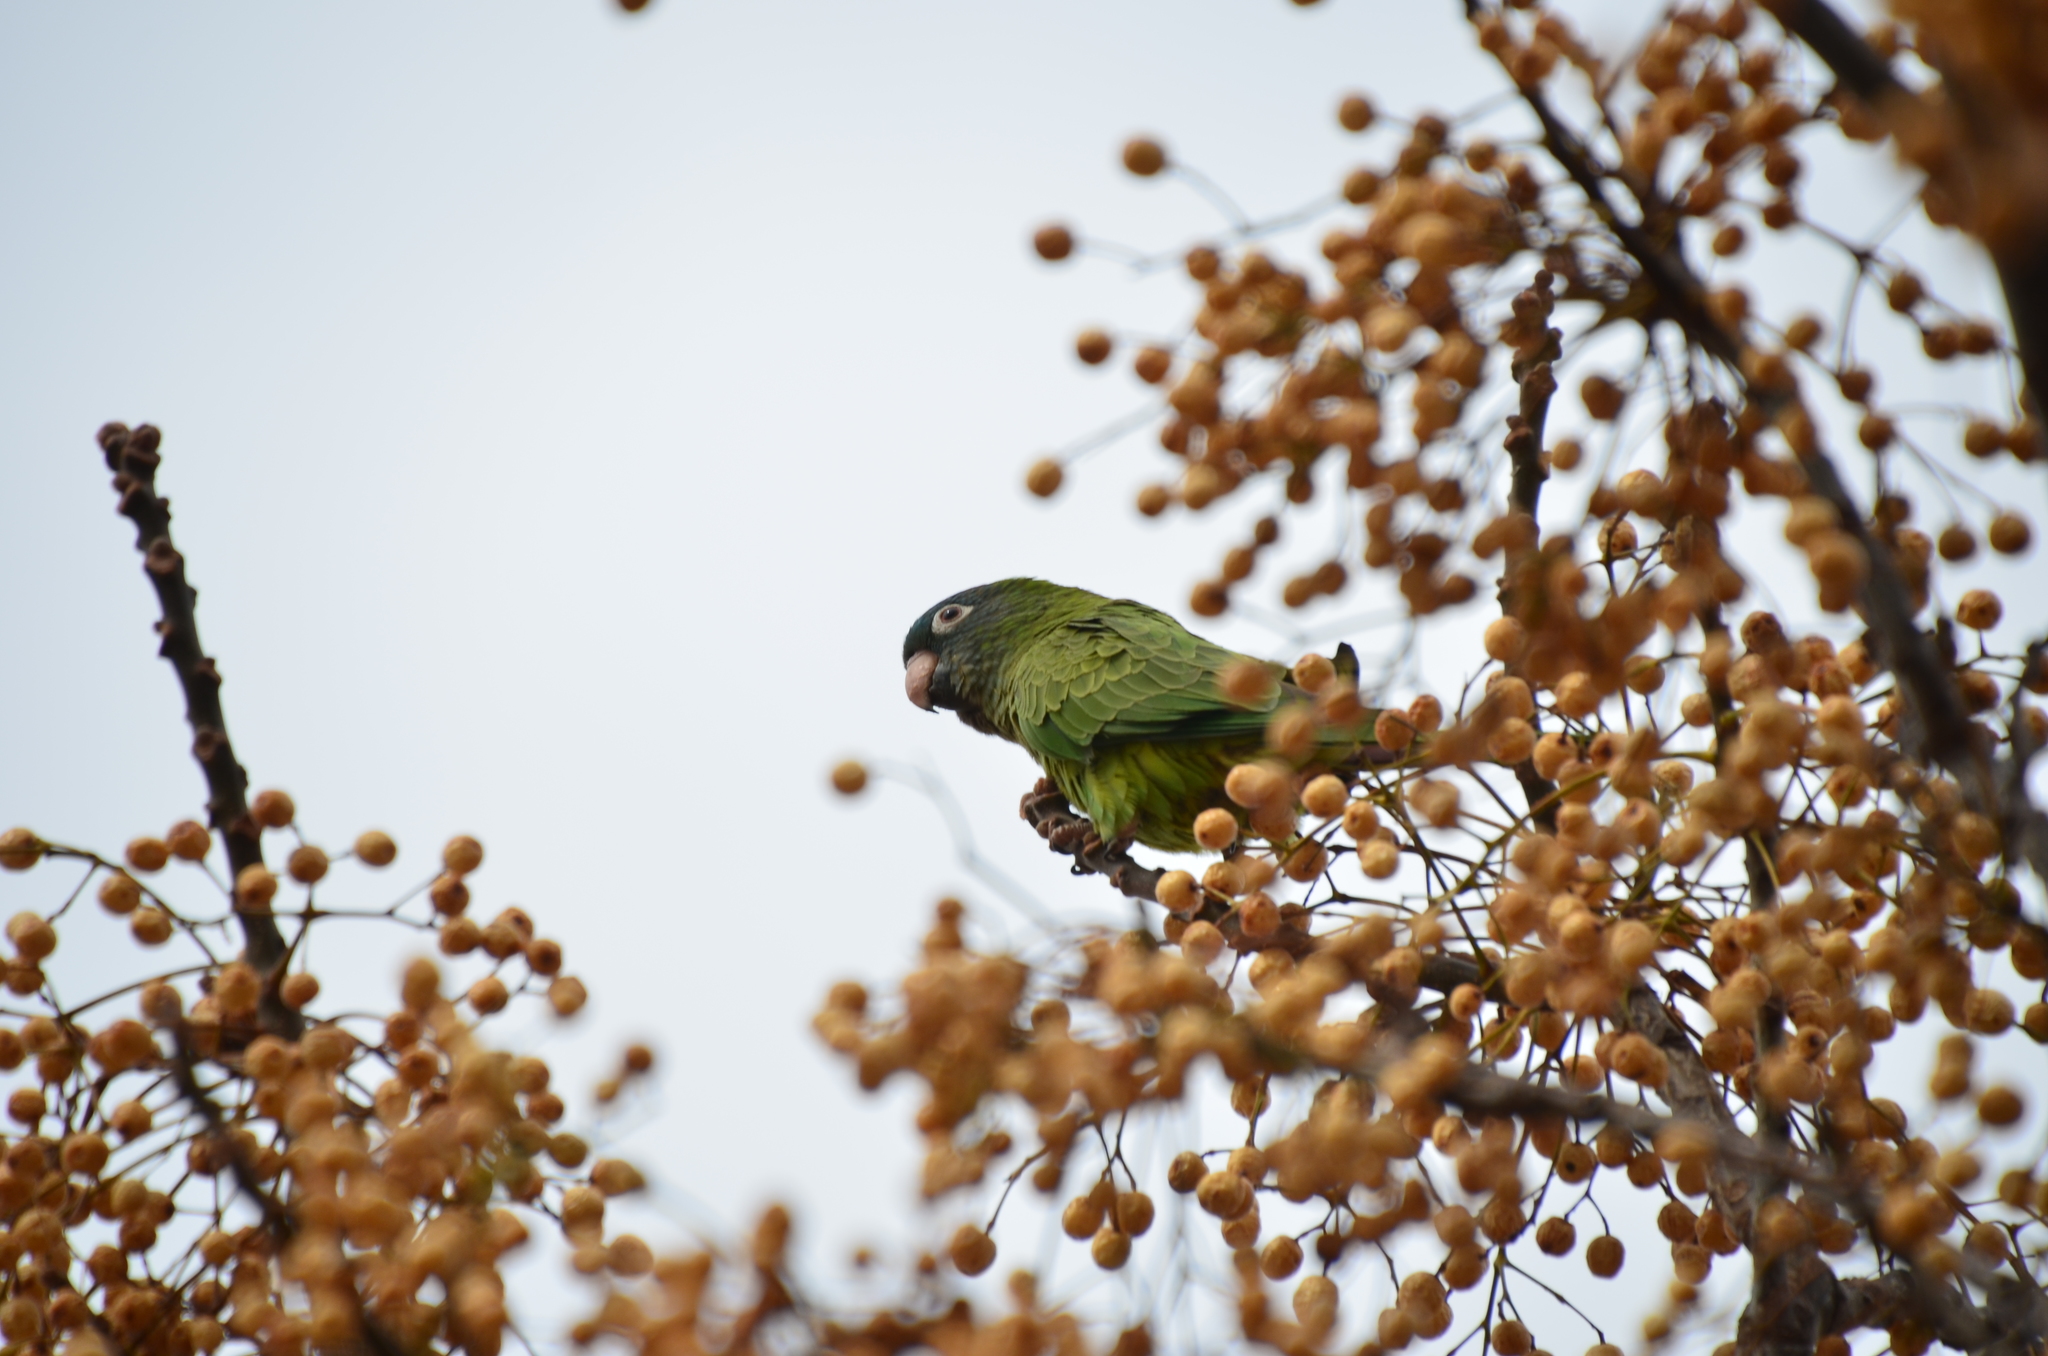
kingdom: Animalia
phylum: Chordata
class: Aves
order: Psittaciformes
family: Psittacidae
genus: Aratinga
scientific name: Aratinga acuticaudata
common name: Blue-crowned parakeet
